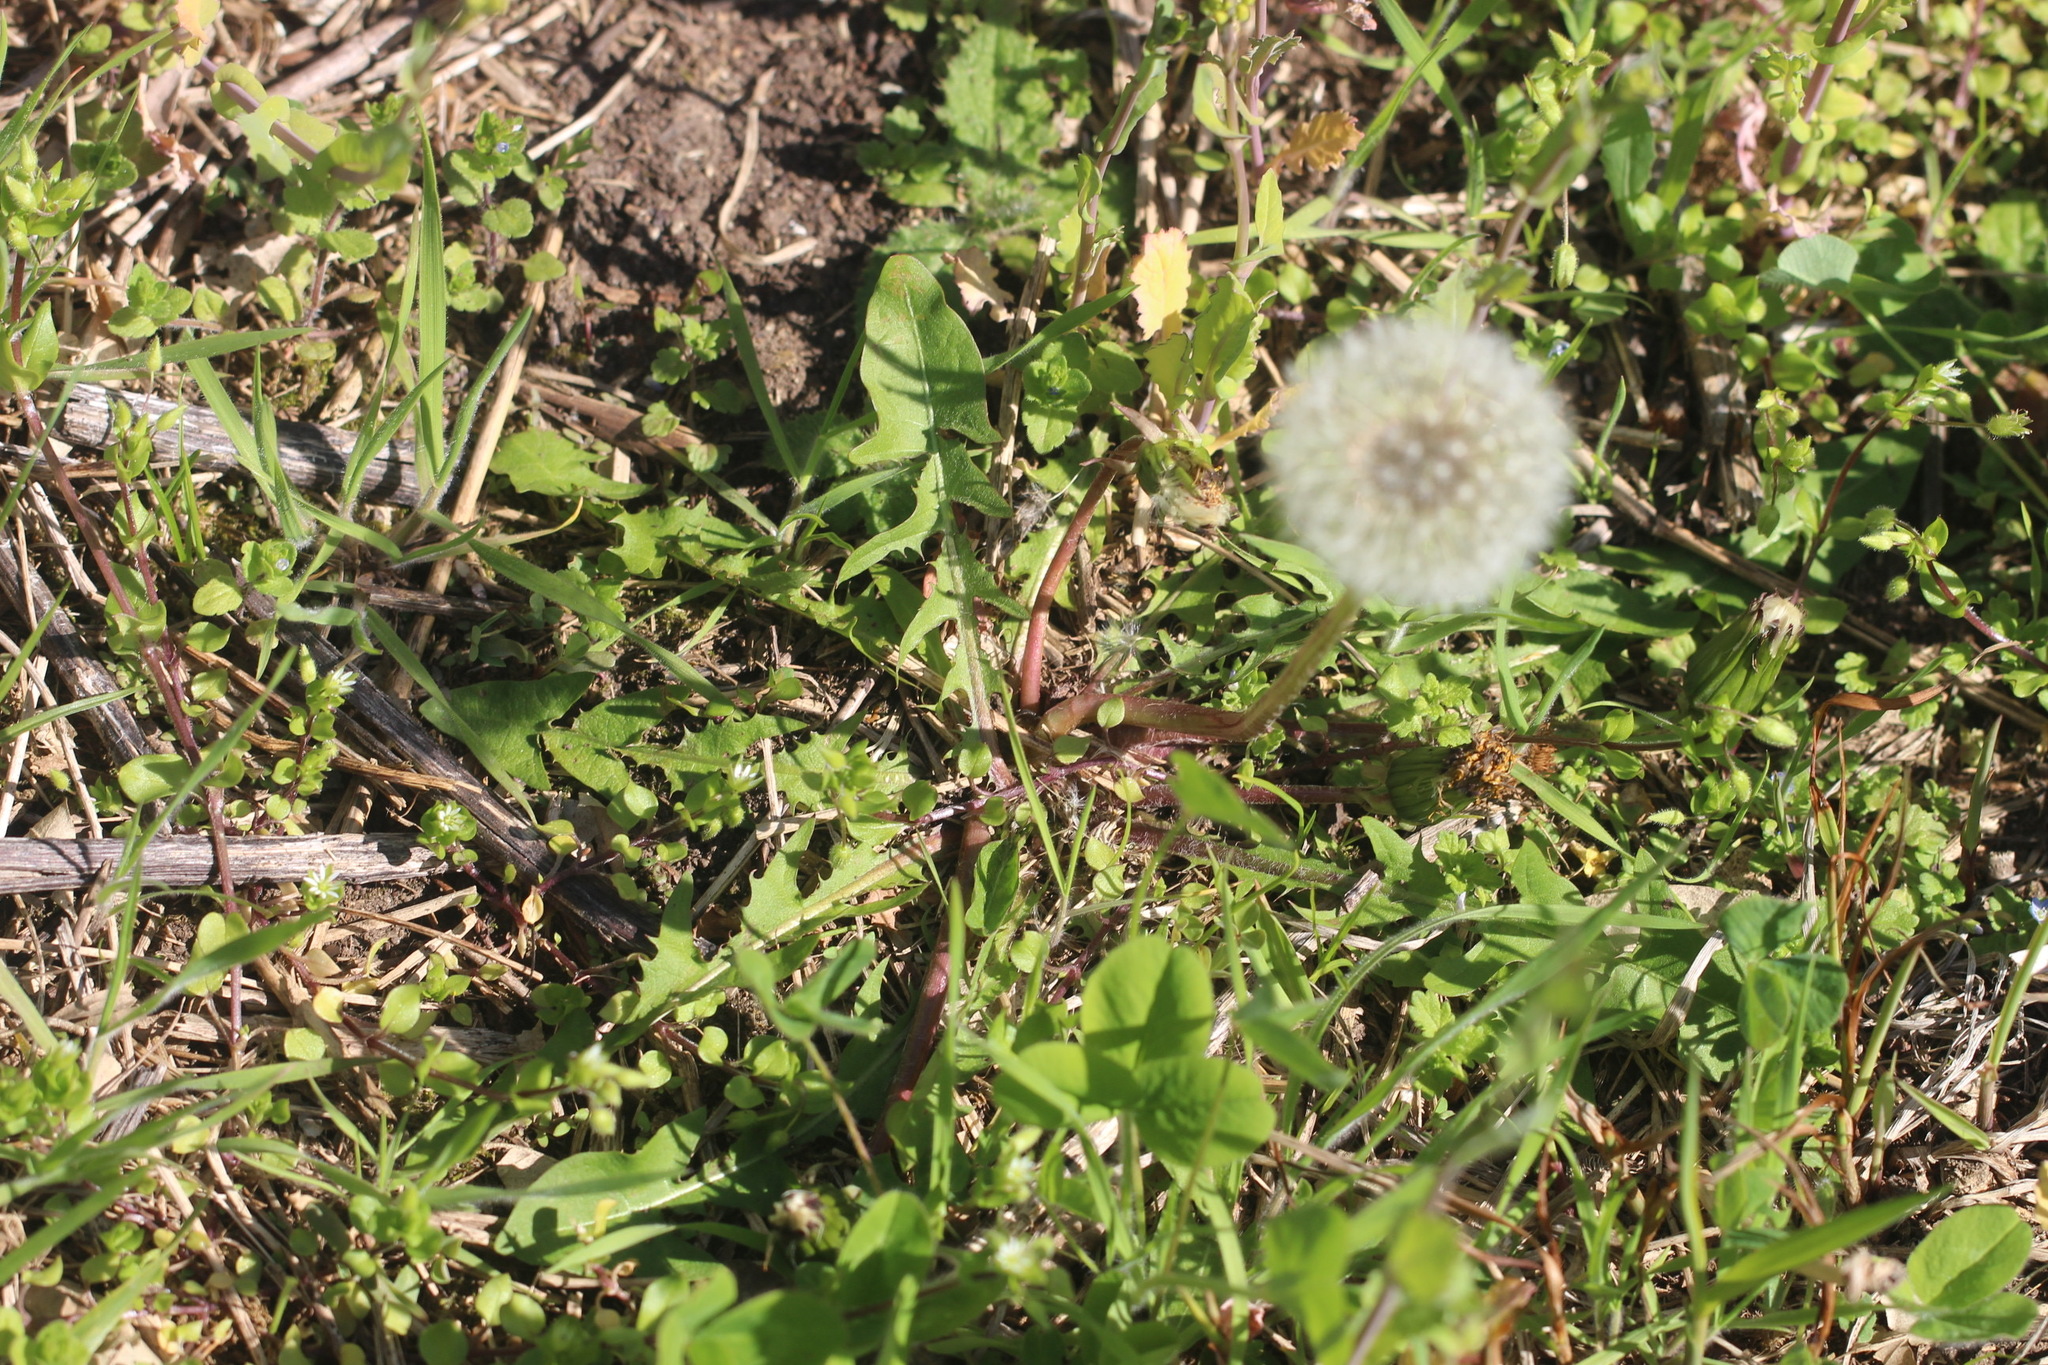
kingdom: Plantae
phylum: Tracheophyta
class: Magnoliopsida
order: Asterales
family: Asteraceae
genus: Taraxacum
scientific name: Taraxacum officinale
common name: Common dandelion
